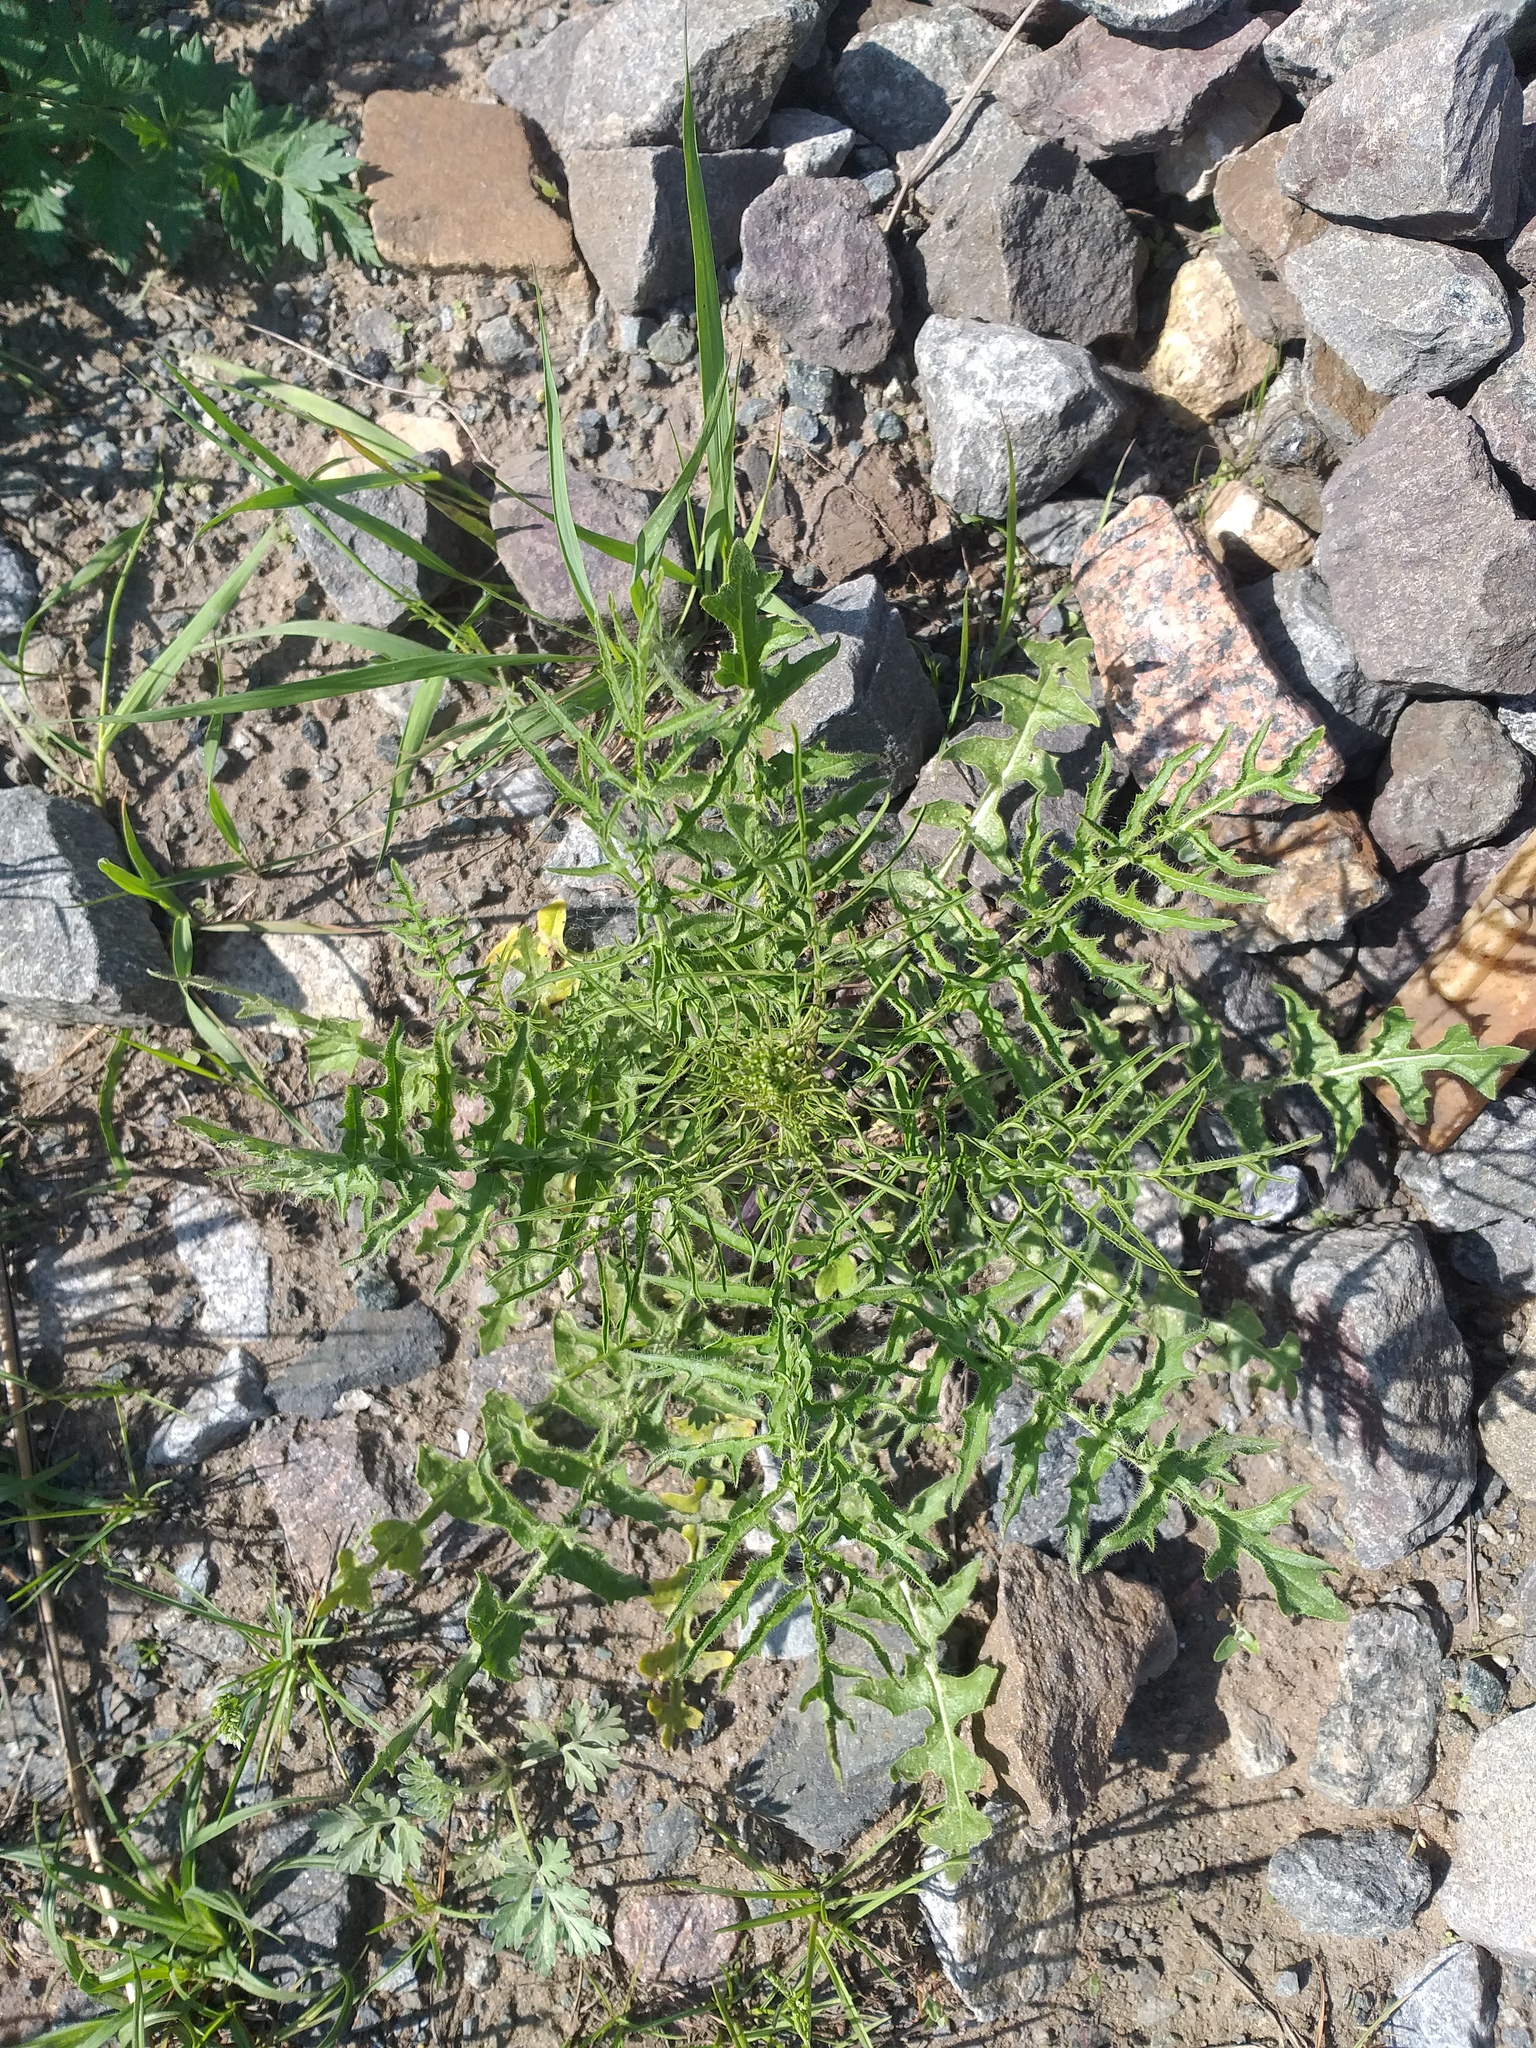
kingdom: Plantae
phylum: Tracheophyta
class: Magnoliopsida
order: Brassicales
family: Brassicaceae
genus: Sisymbrium
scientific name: Sisymbrium altissimum
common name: Tall rocket
